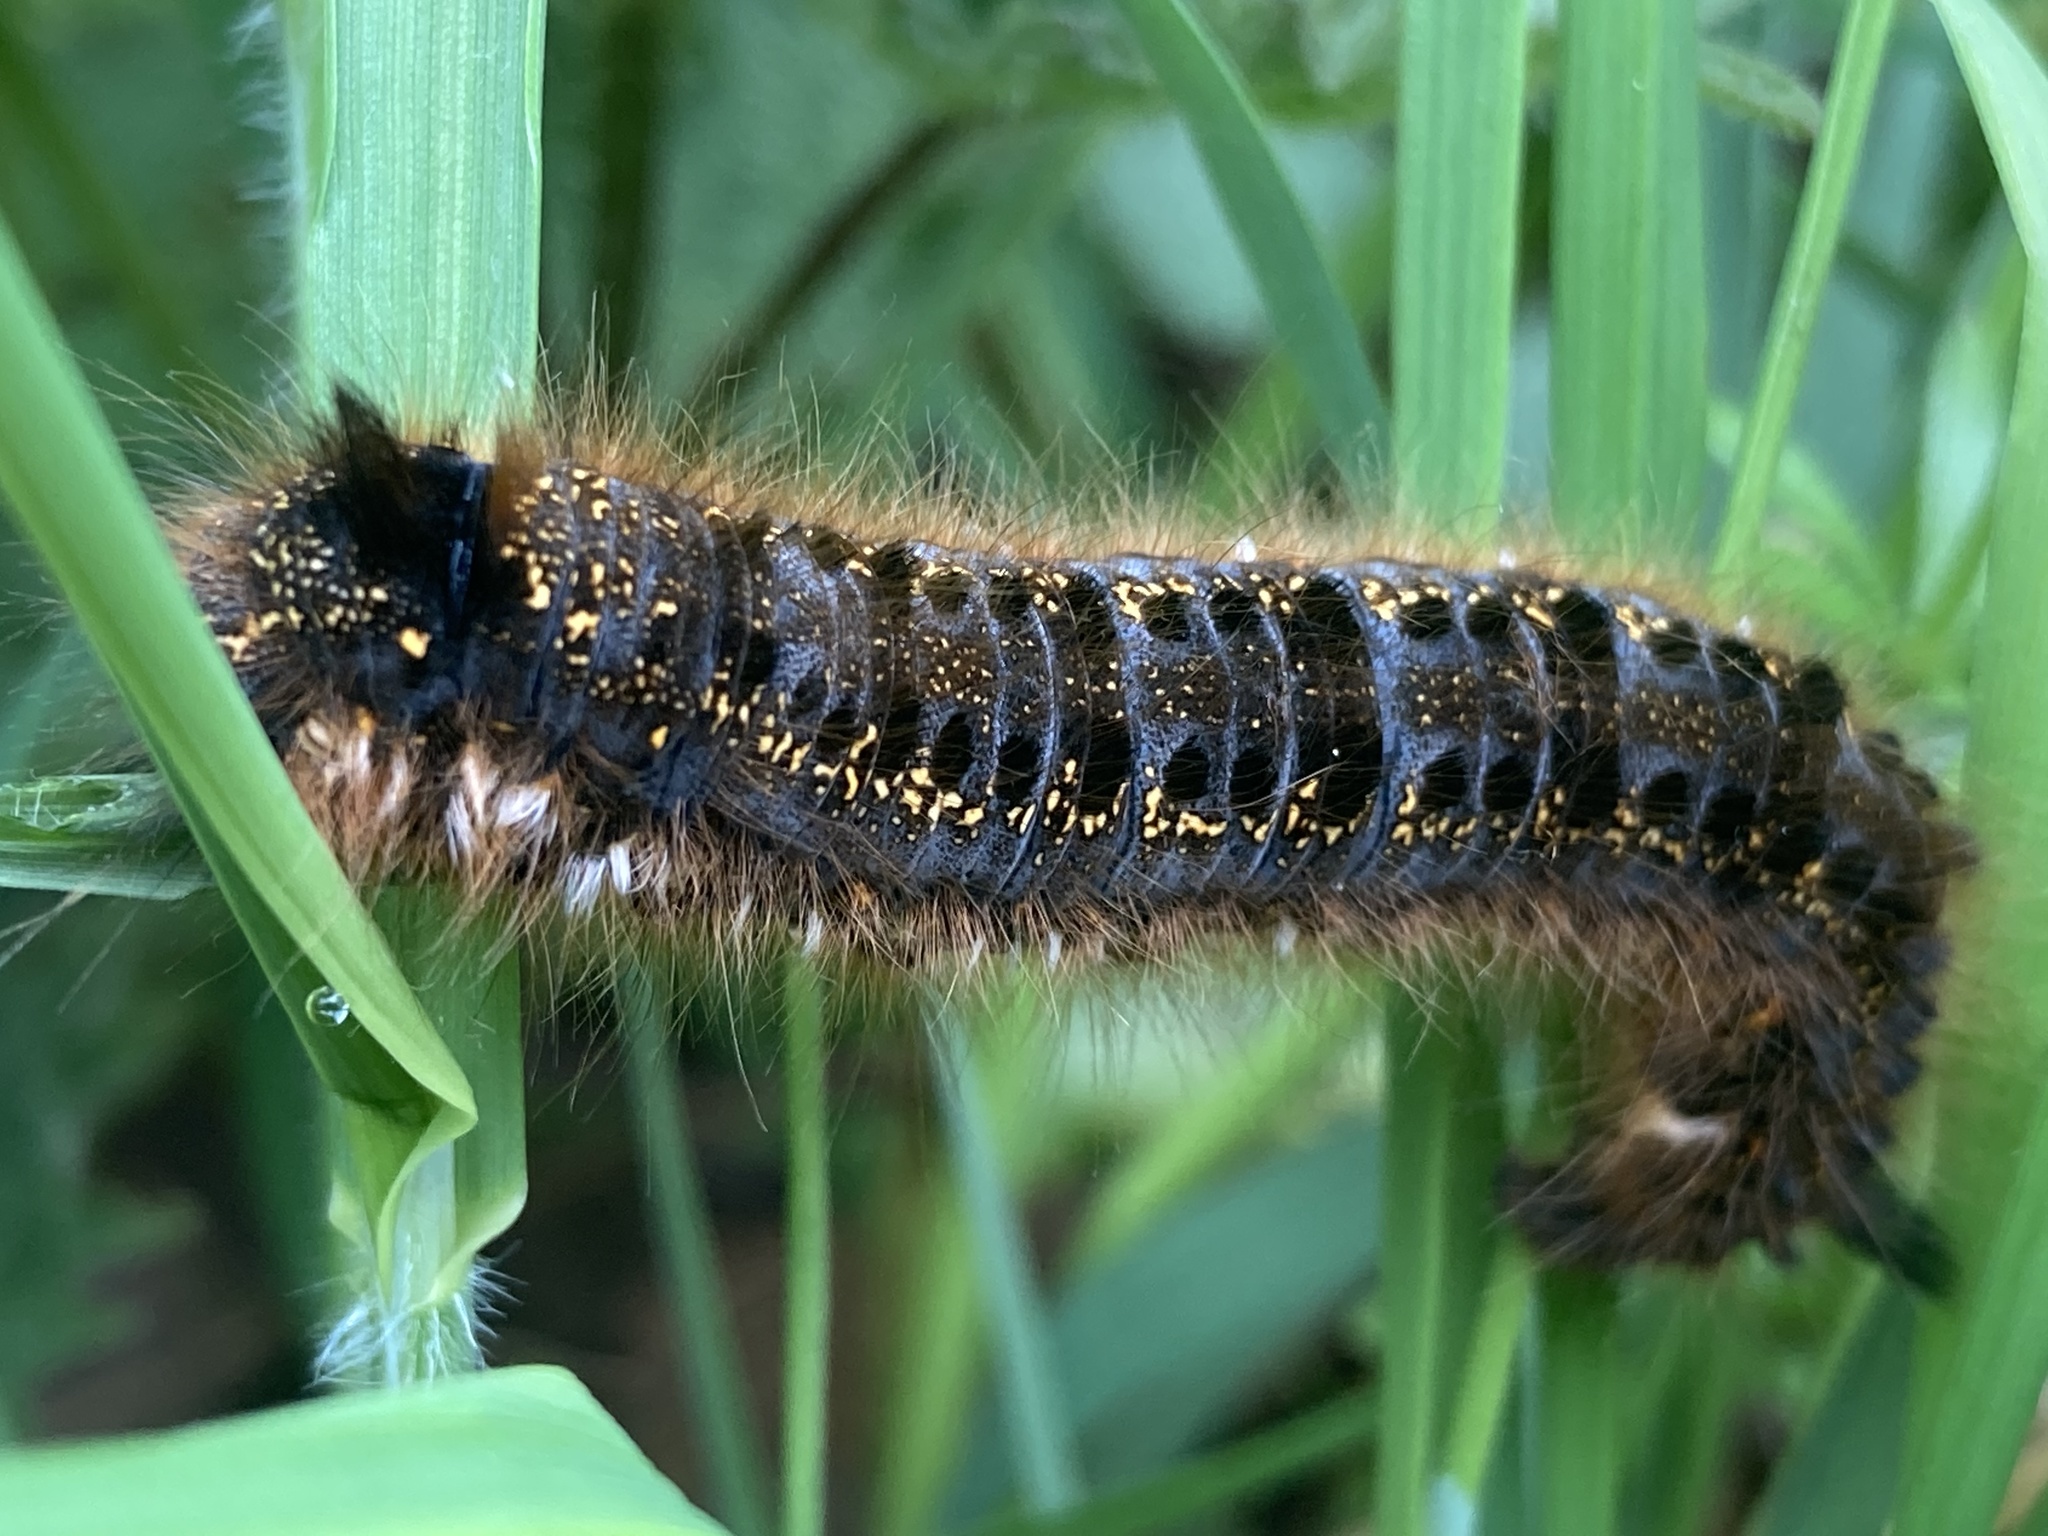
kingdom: Animalia
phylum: Arthropoda
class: Insecta
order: Lepidoptera
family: Lasiocampidae
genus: Euthrix
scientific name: Euthrix potatoria
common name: Drinker
